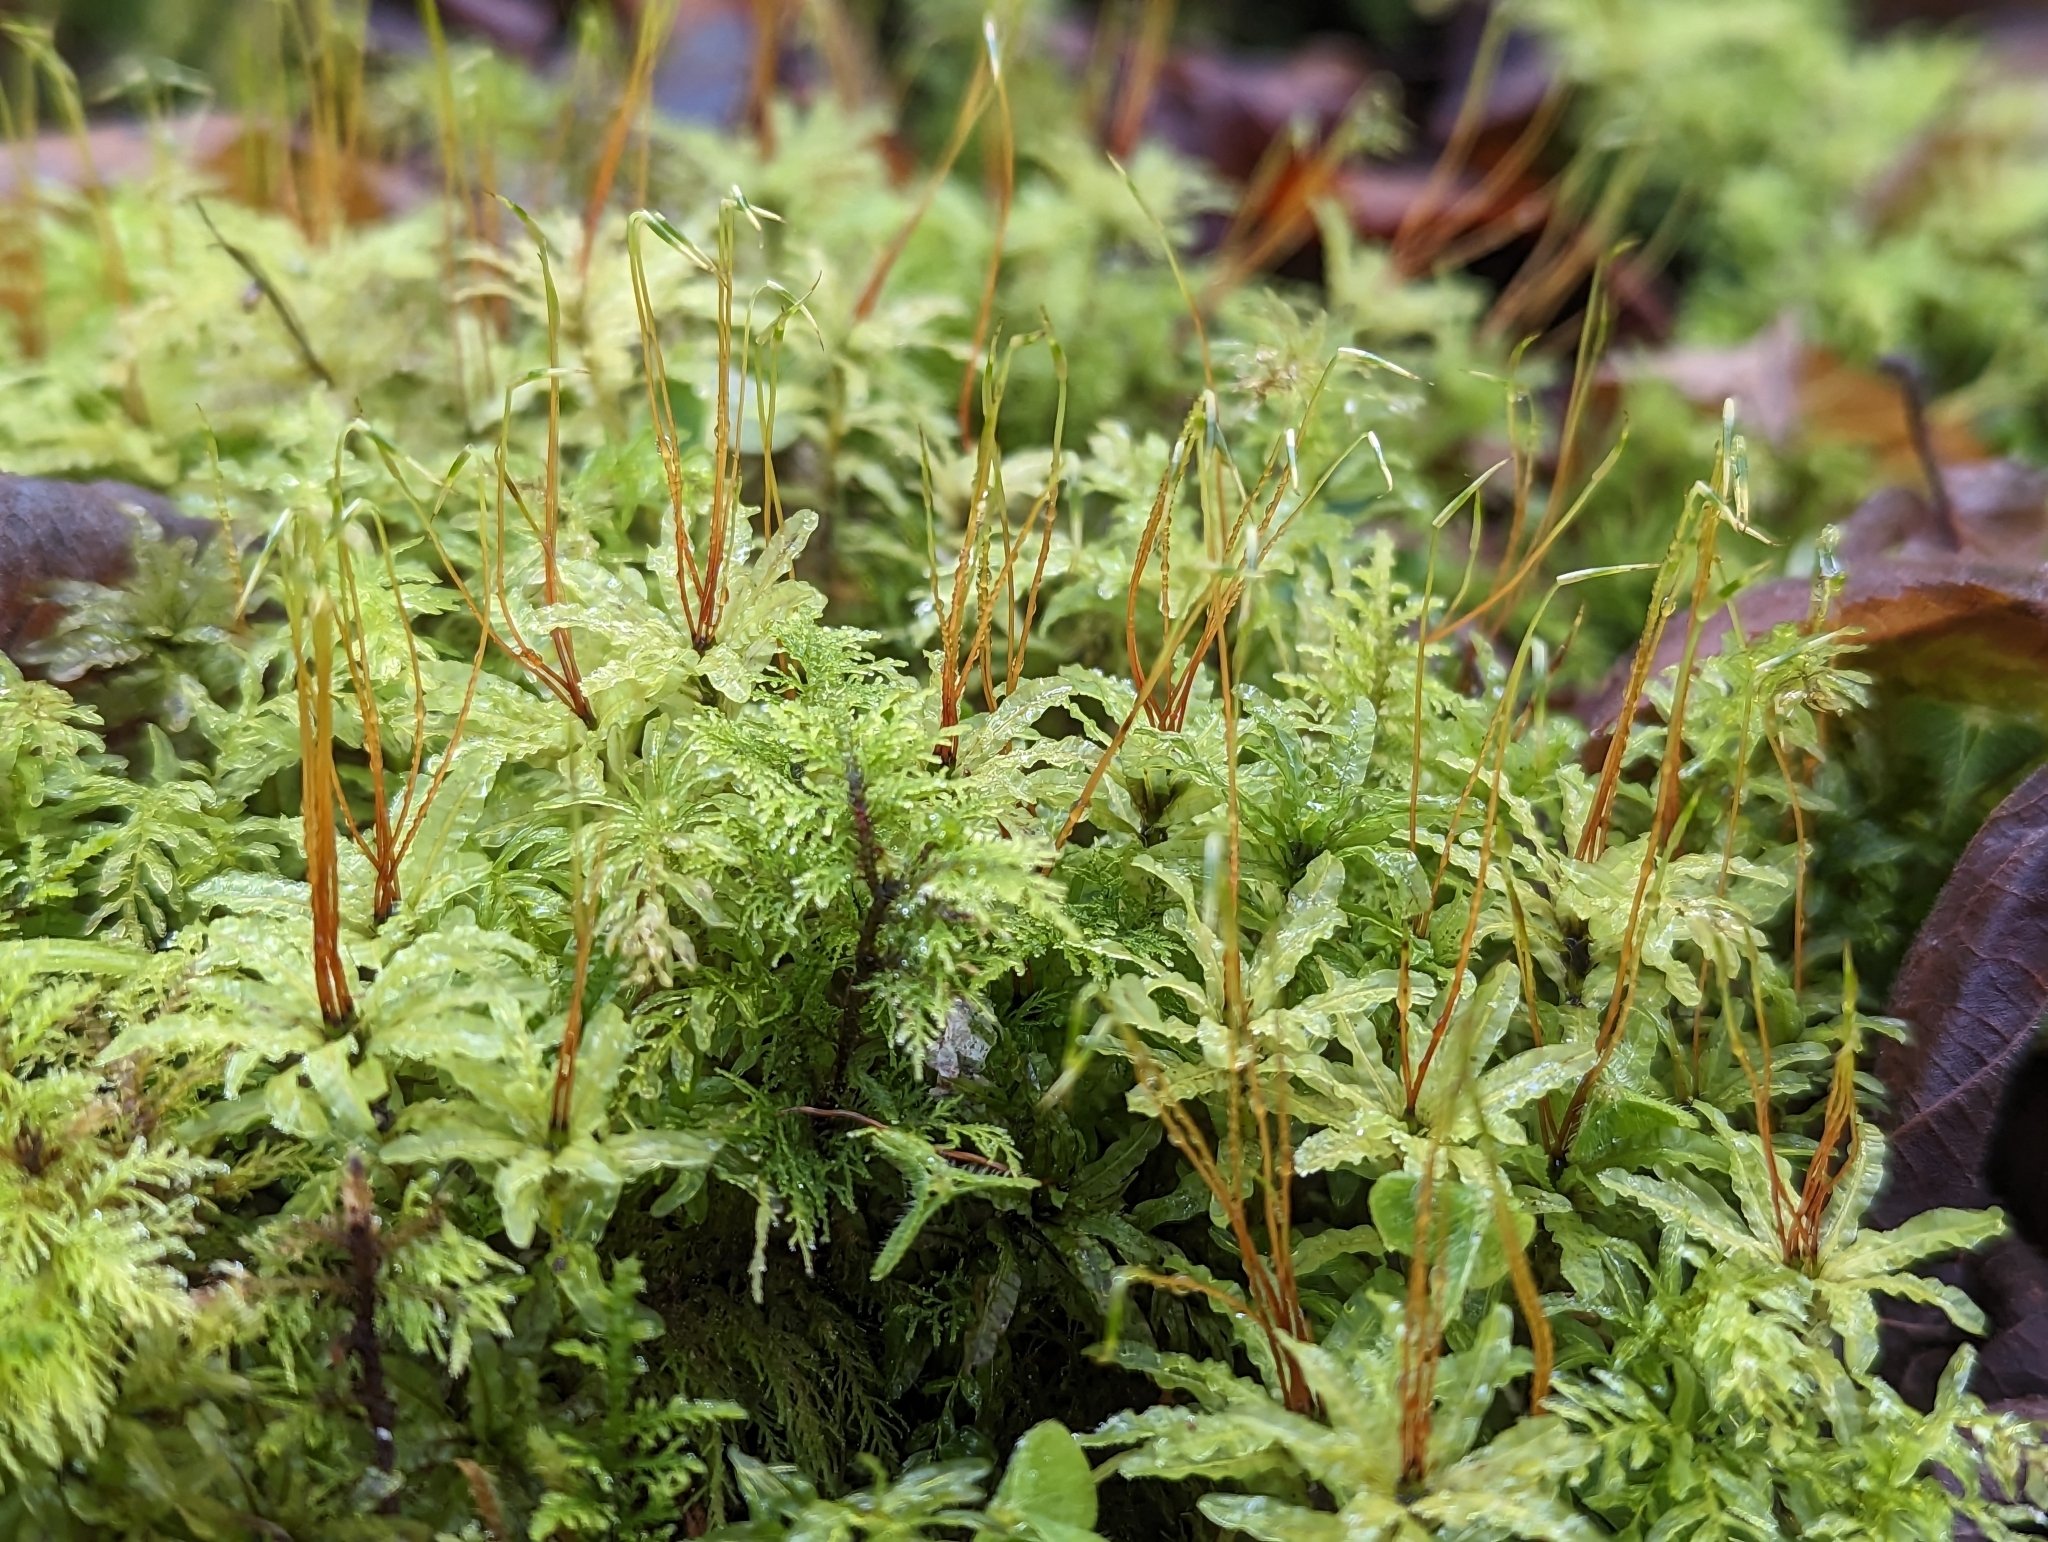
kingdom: Plantae
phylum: Bryophyta
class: Bryopsida
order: Bryales
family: Mniaceae
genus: Plagiomnium
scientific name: Plagiomnium undulatum
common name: Hart's-tongue thyme-moss
